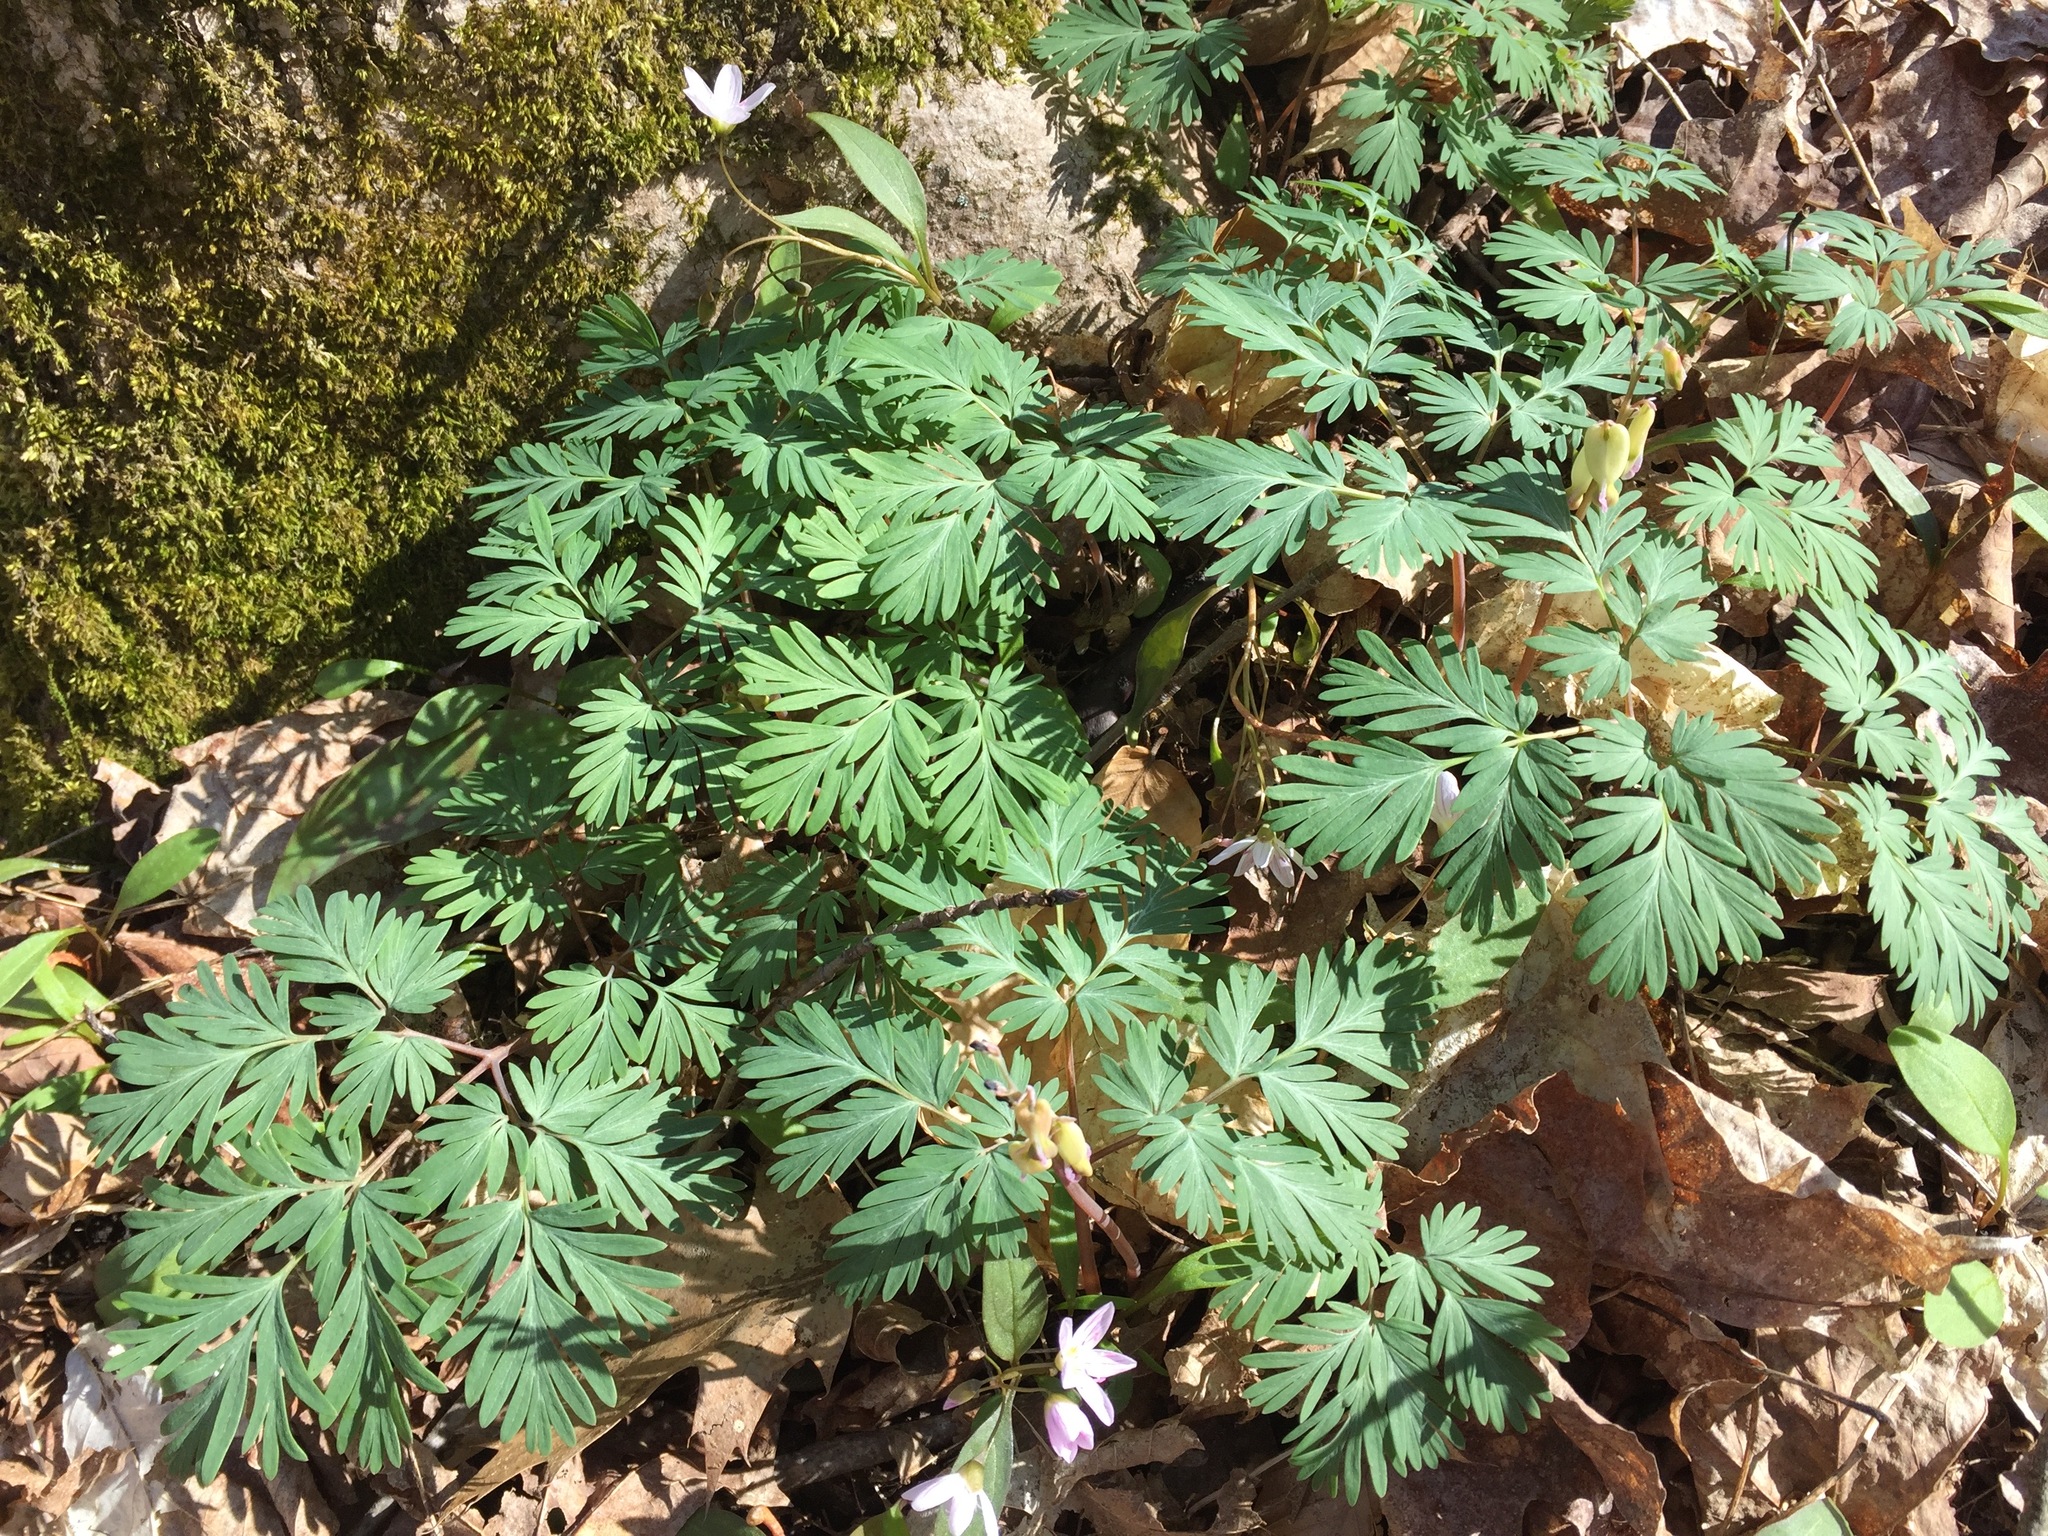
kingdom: Plantae
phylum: Tracheophyta
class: Magnoliopsida
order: Ranunculales
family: Papaveraceae
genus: Dicentra
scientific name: Dicentra canadensis
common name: Squirrel-corn
